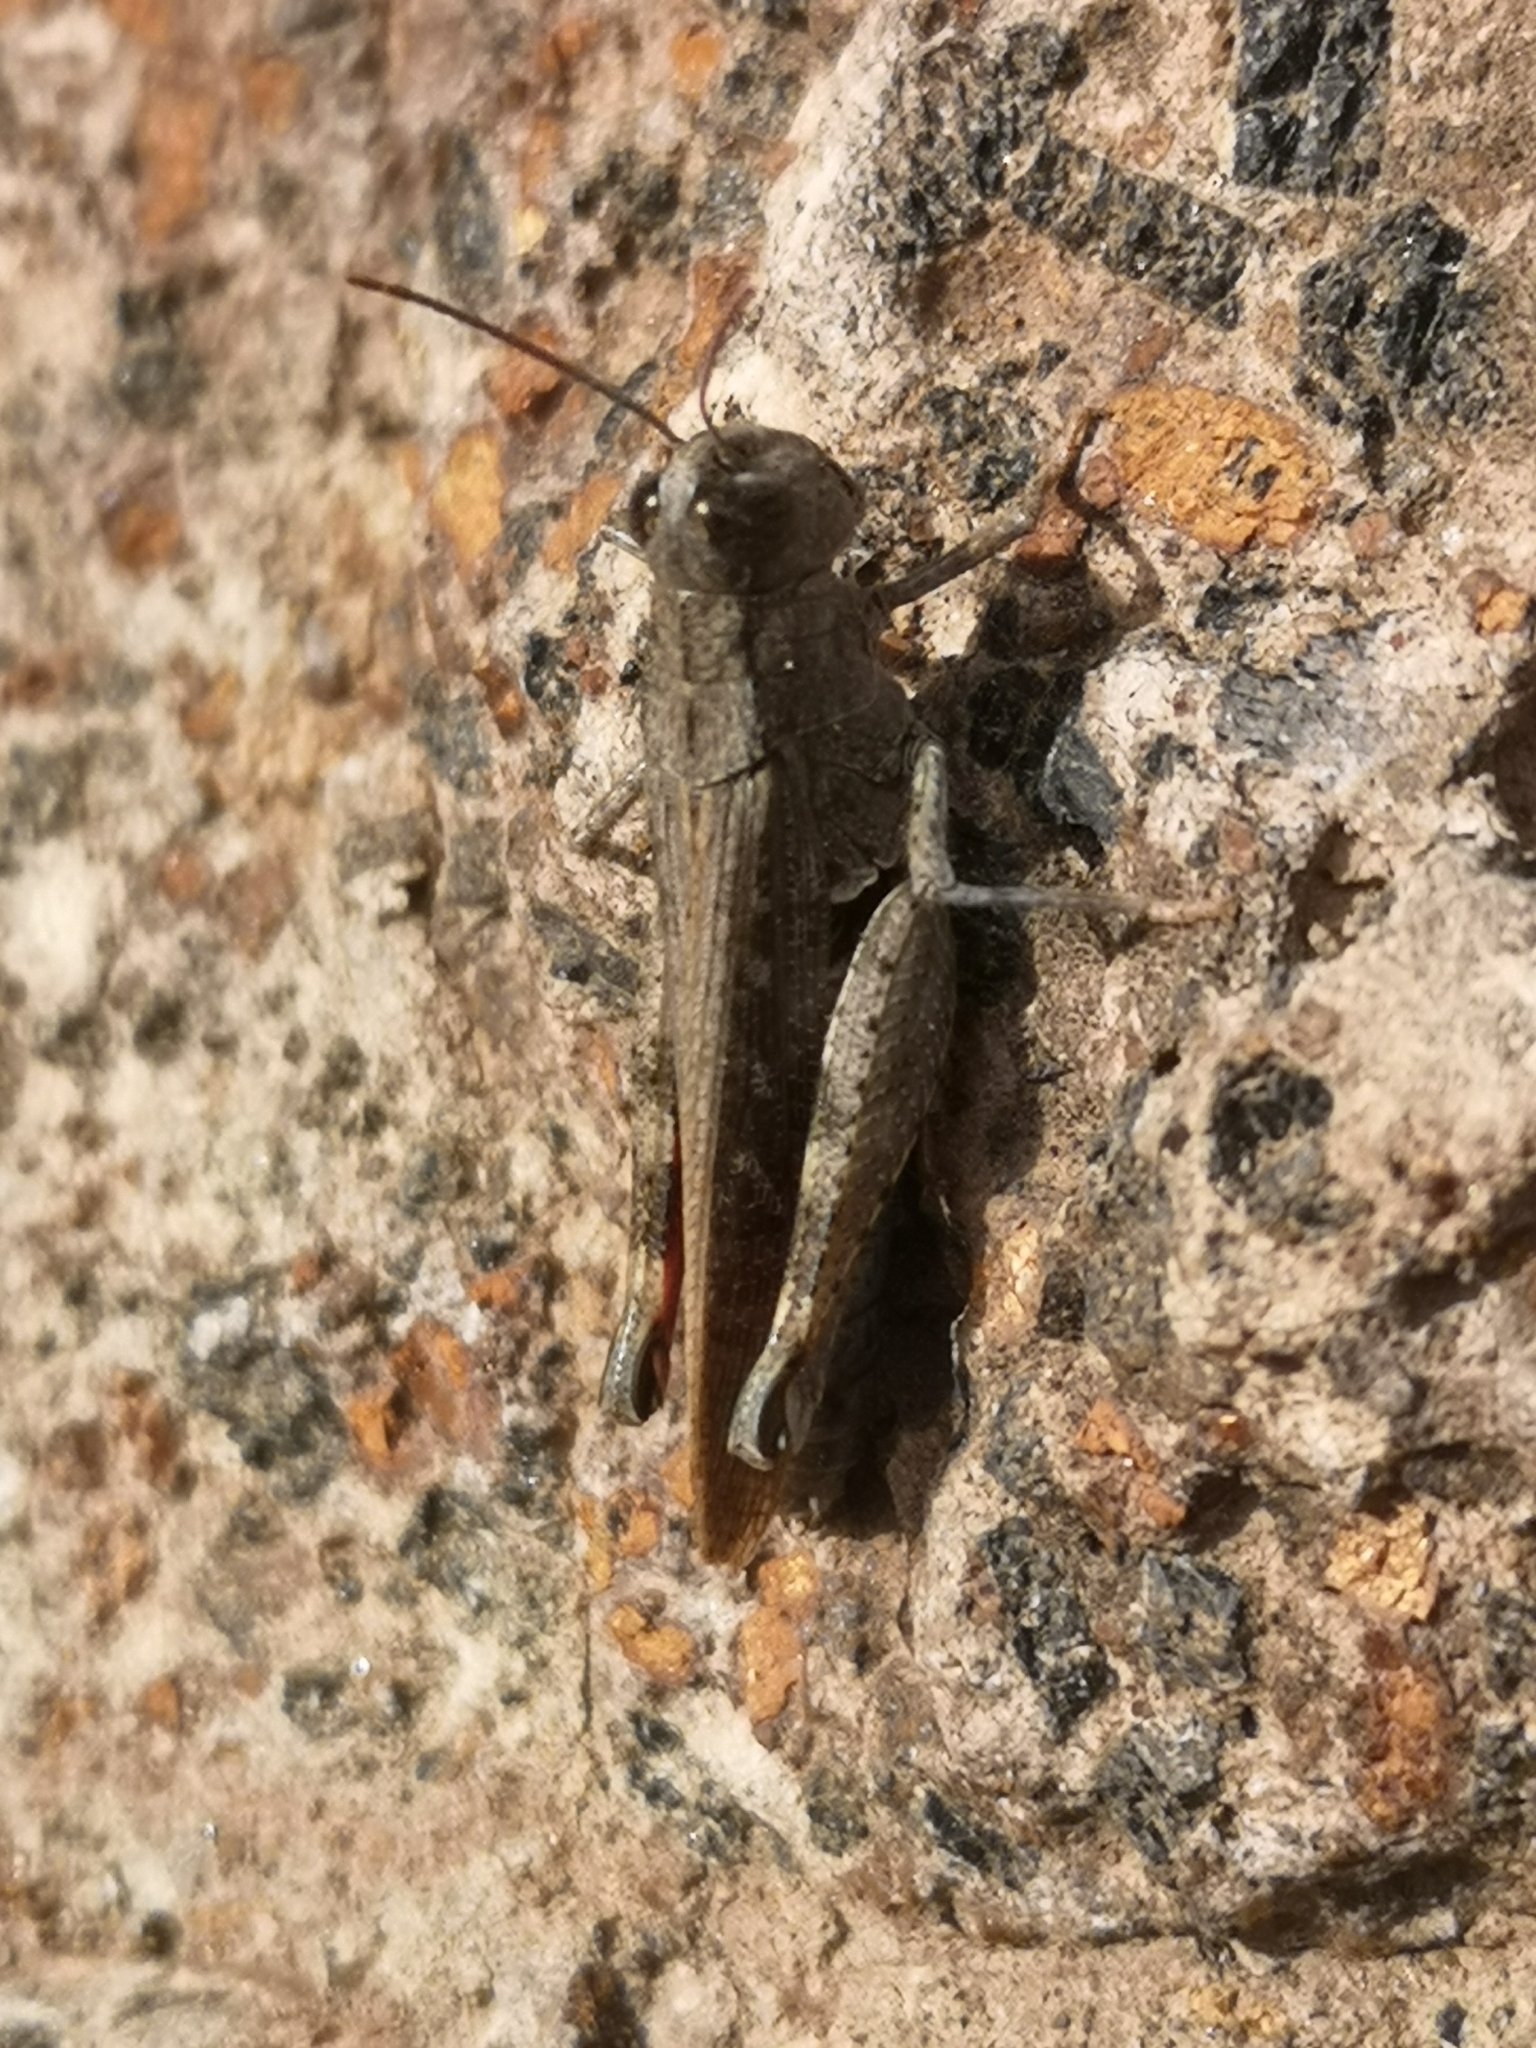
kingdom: Animalia
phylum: Arthropoda
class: Insecta
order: Orthoptera
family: Acrididae
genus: Calliptamus
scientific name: Calliptamus plebeius
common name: Canarian pincer grasshopper
